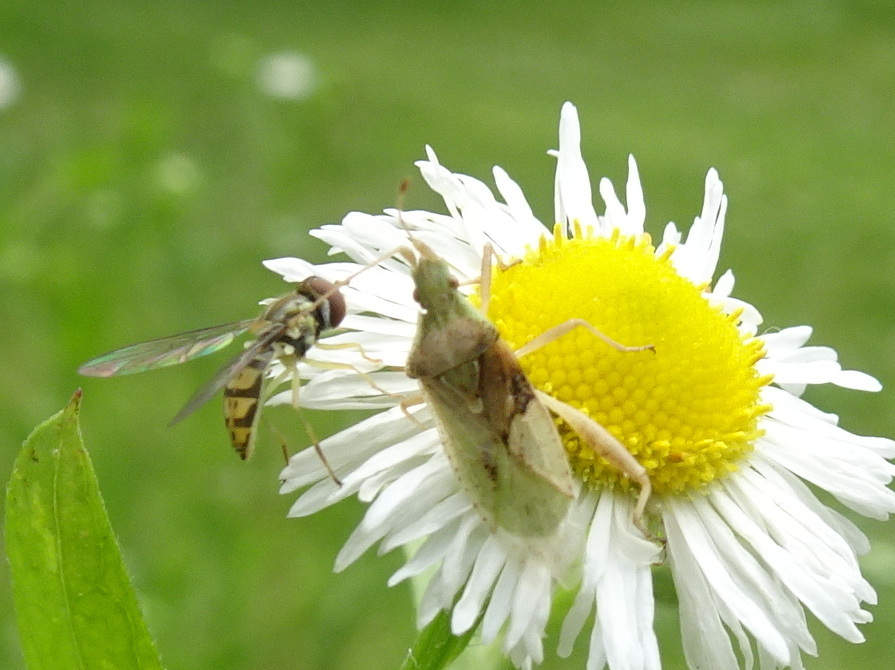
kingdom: Animalia
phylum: Arthropoda
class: Insecta
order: Hemiptera
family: Rhopalidae
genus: Harmostes
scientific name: Harmostes reflexulus
